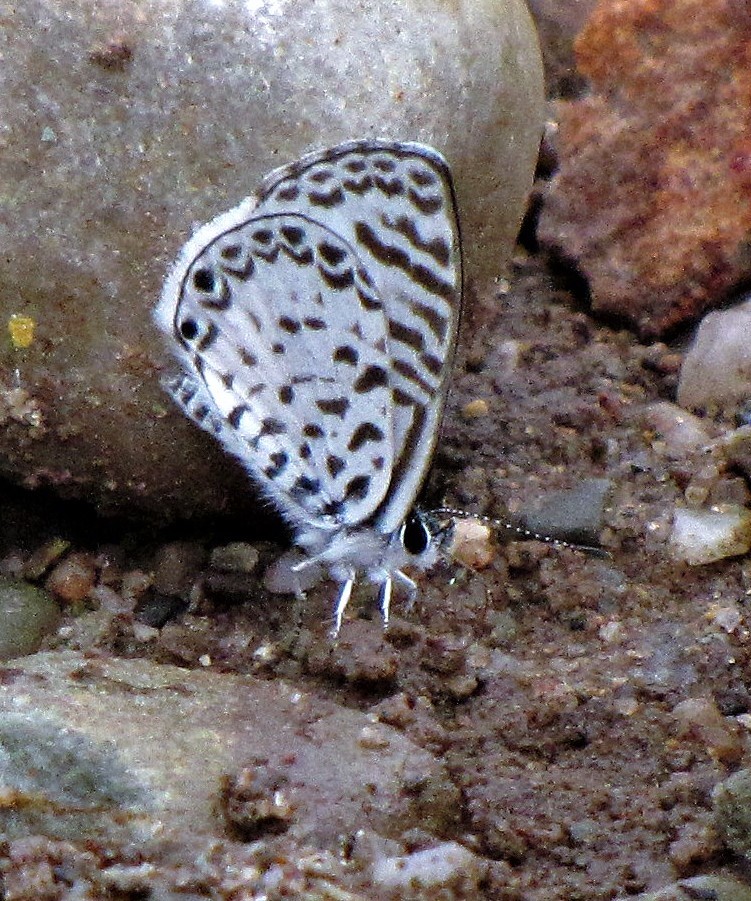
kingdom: Animalia
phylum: Arthropoda
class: Insecta
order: Lepidoptera
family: Lycaenidae
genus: Leptotes
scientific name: Leptotes cassius
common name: Cassius blue
